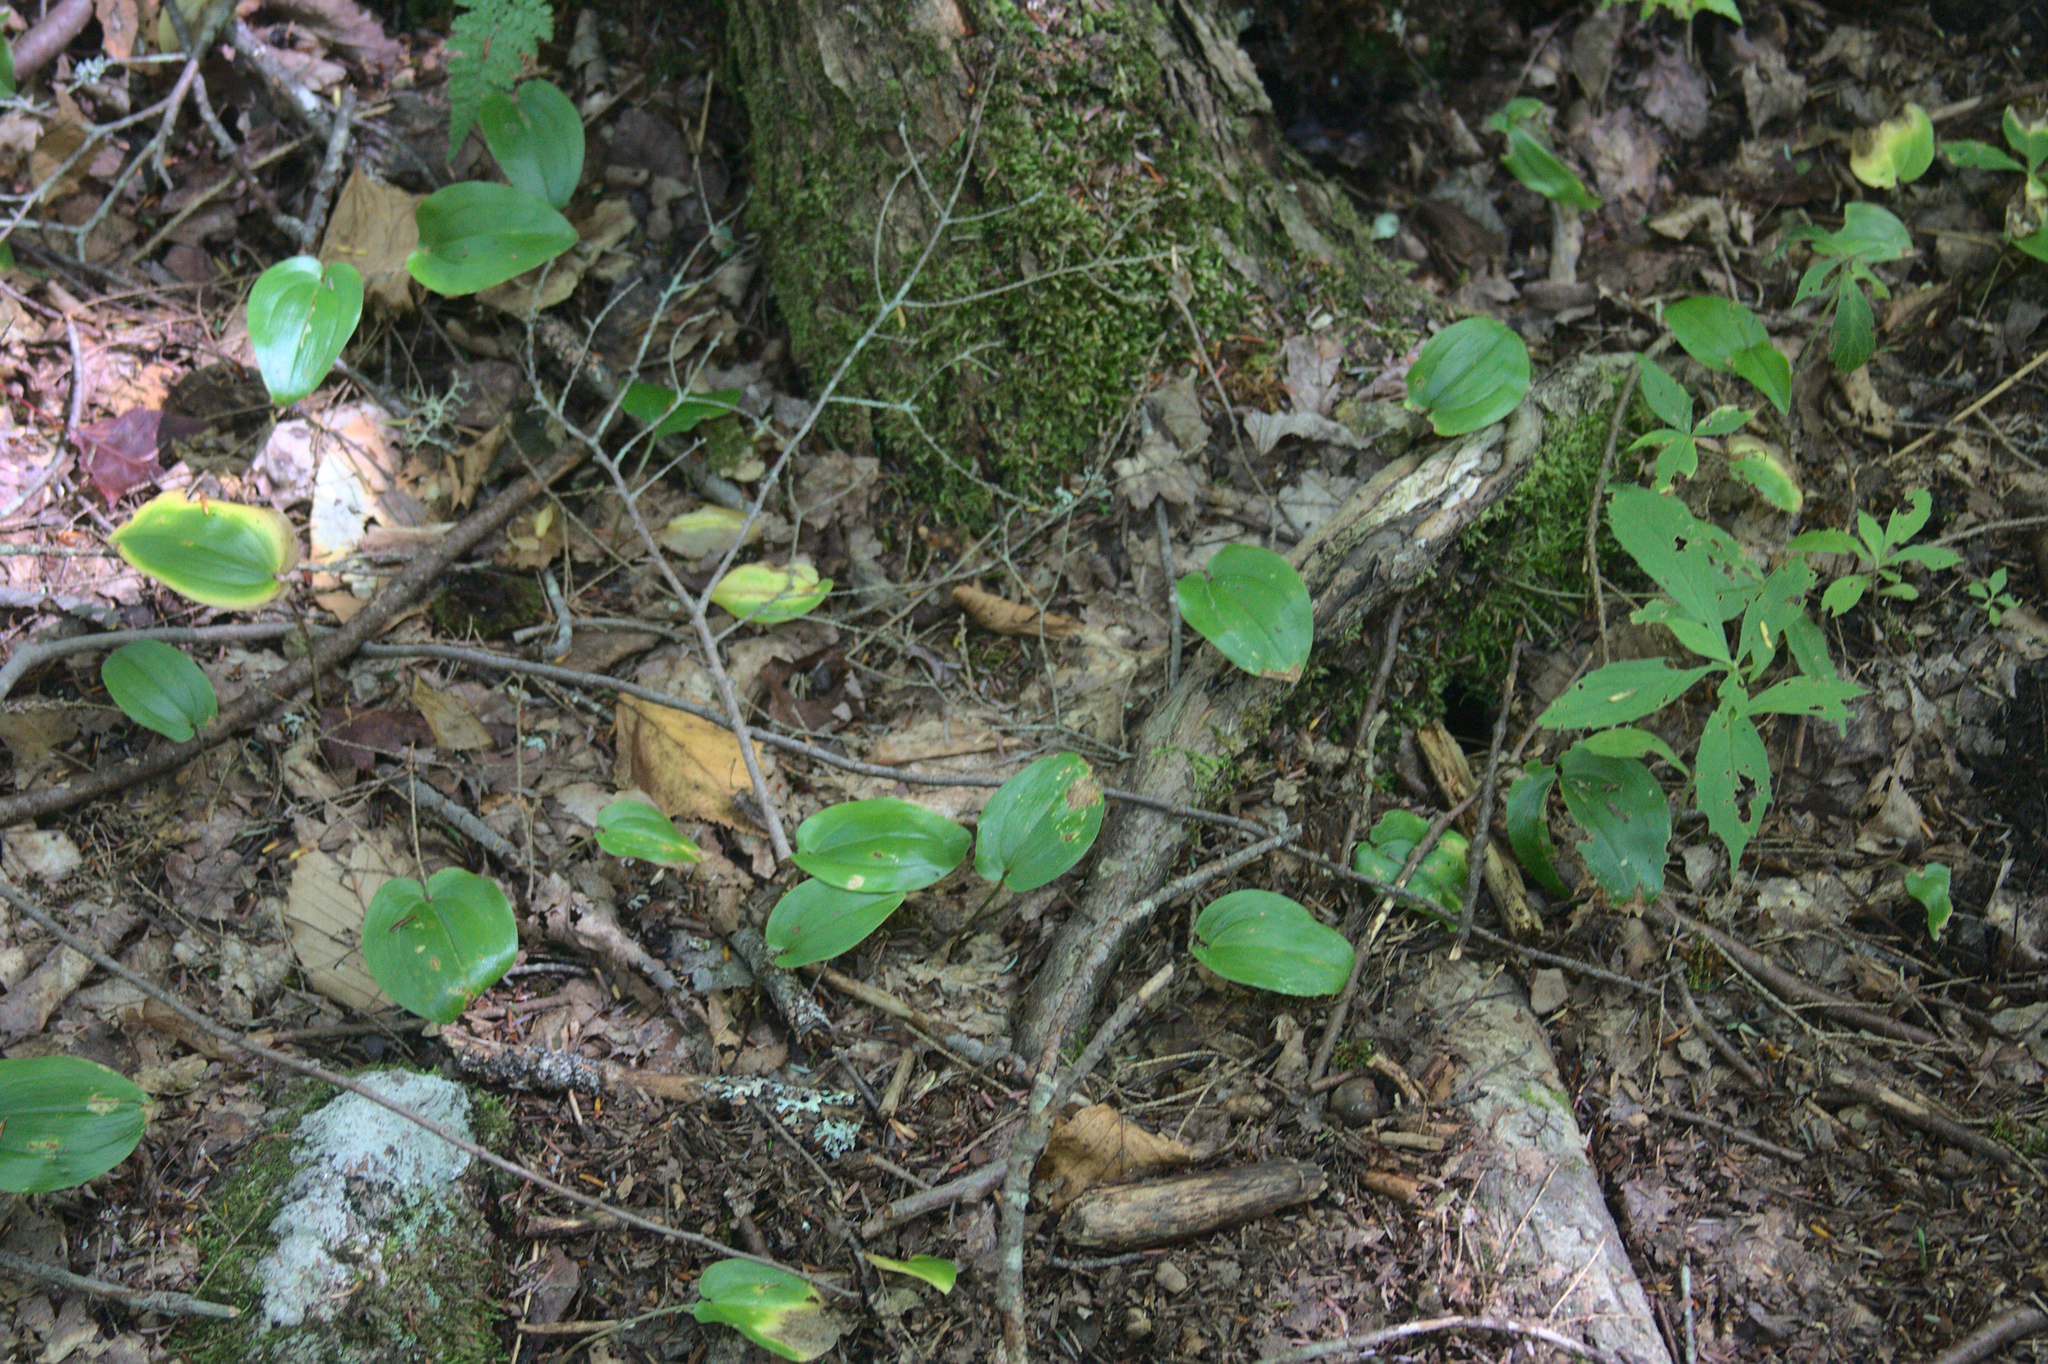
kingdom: Plantae
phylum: Tracheophyta
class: Liliopsida
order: Asparagales
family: Asparagaceae
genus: Maianthemum
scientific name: Maianthemum canadense
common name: False lily-of-the-valley
